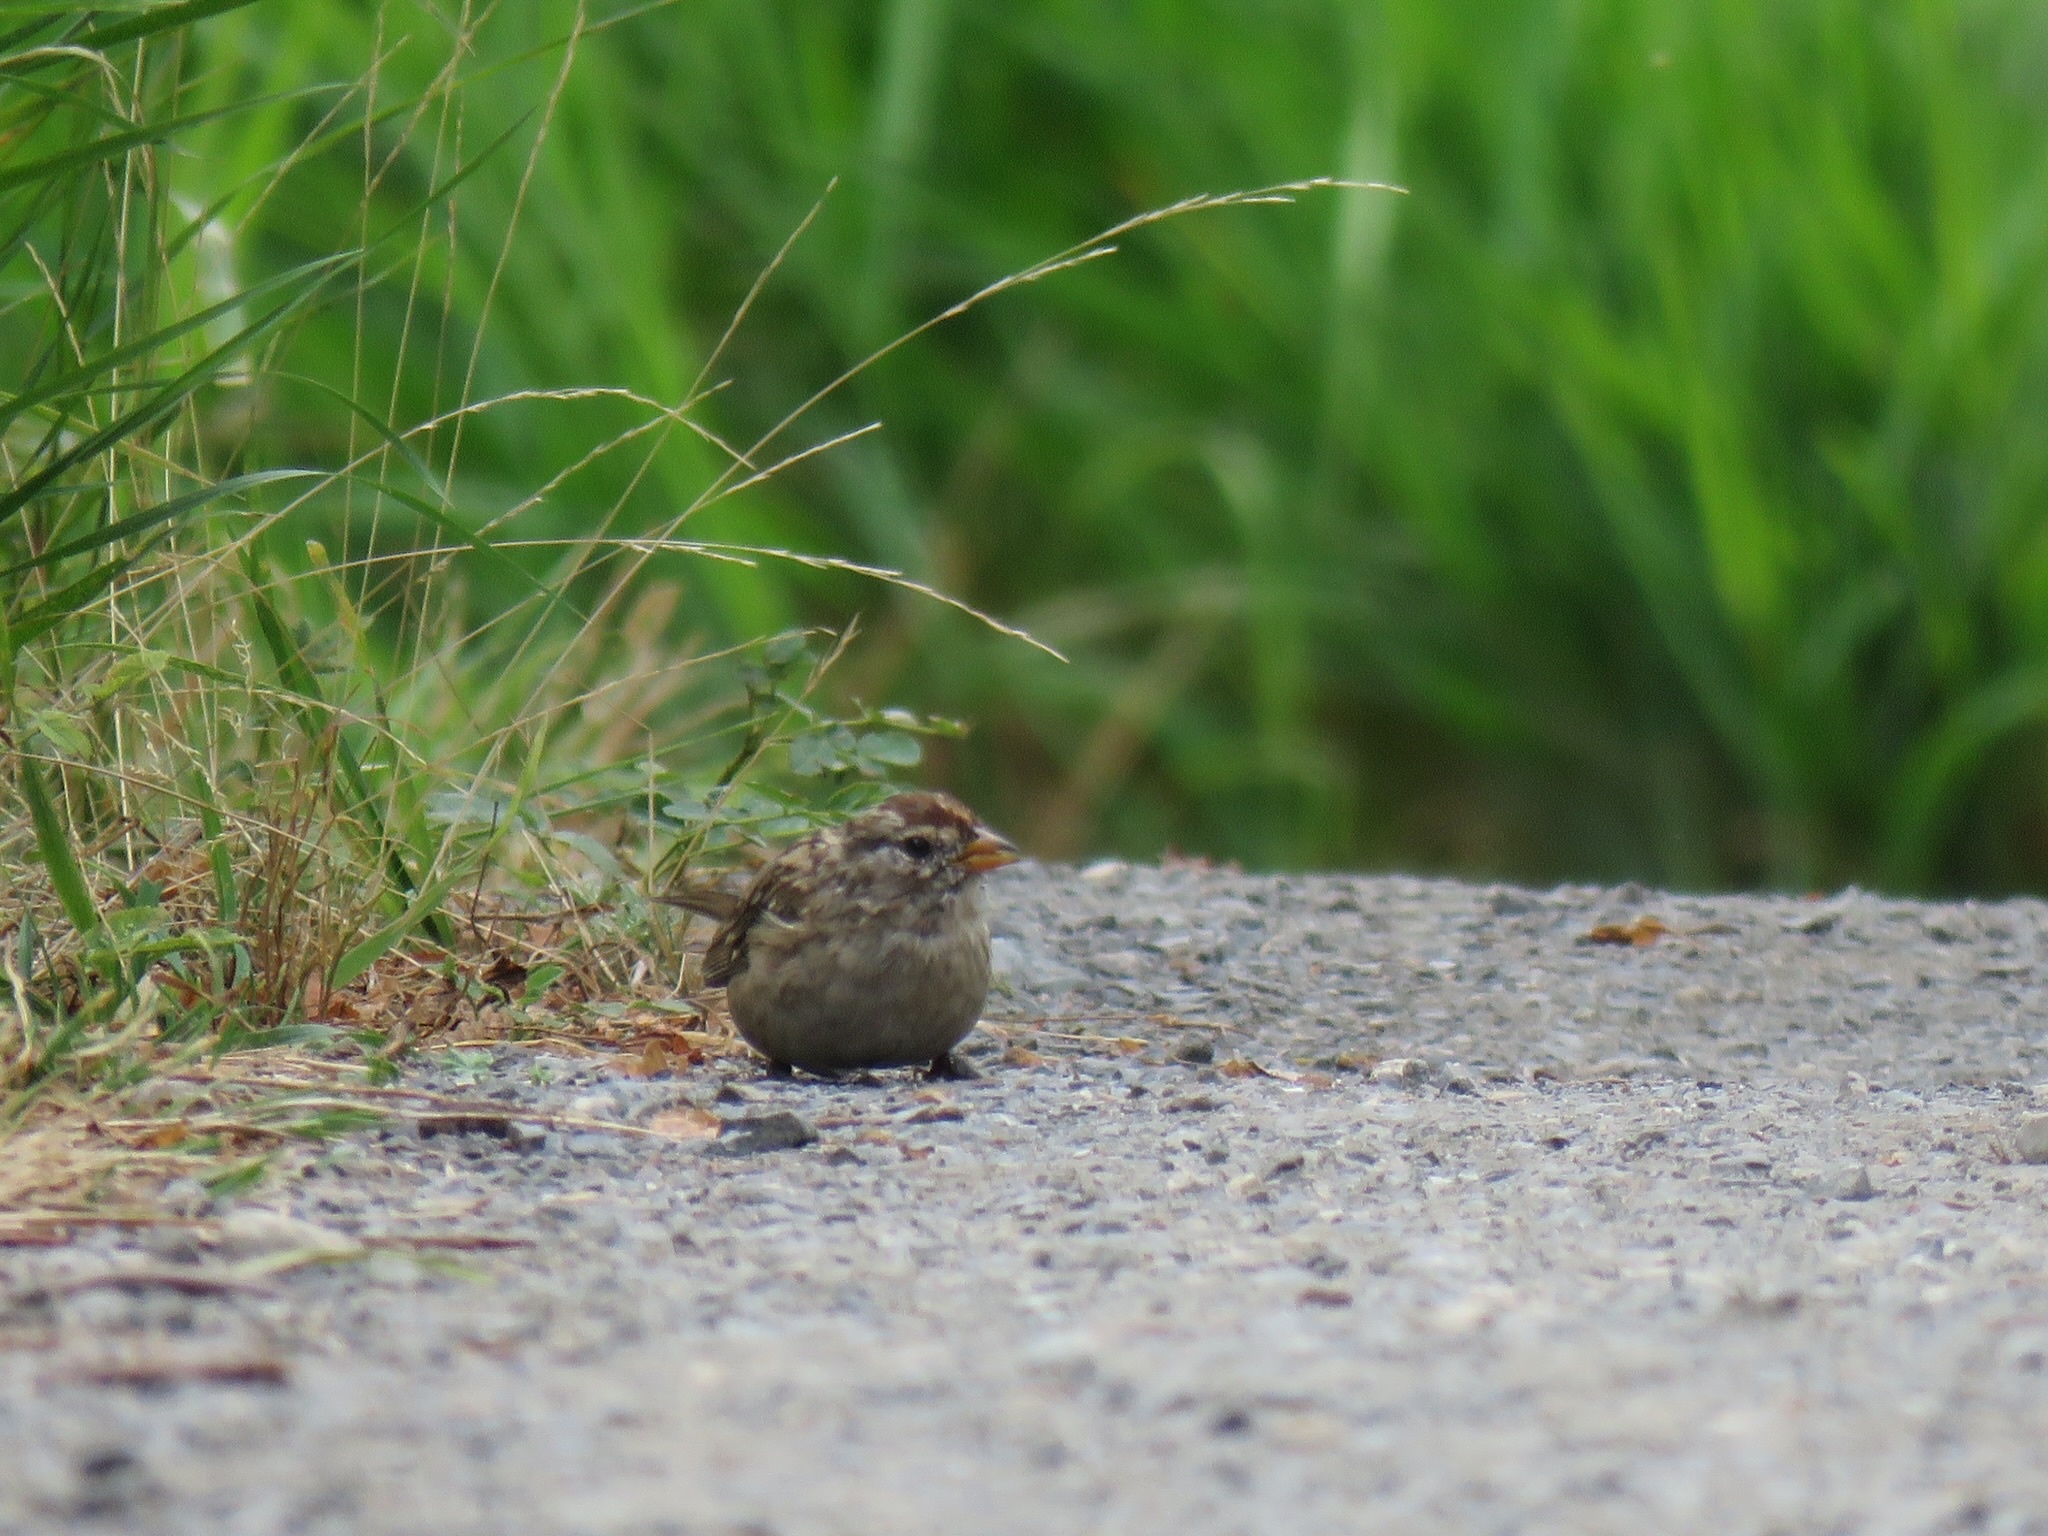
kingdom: Animalia
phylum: Chordata
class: Aves
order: Passeriformes
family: Passerellidae
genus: Zonotrichia
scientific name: Zonotrichia leucophrys
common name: White-crowned sparrow
